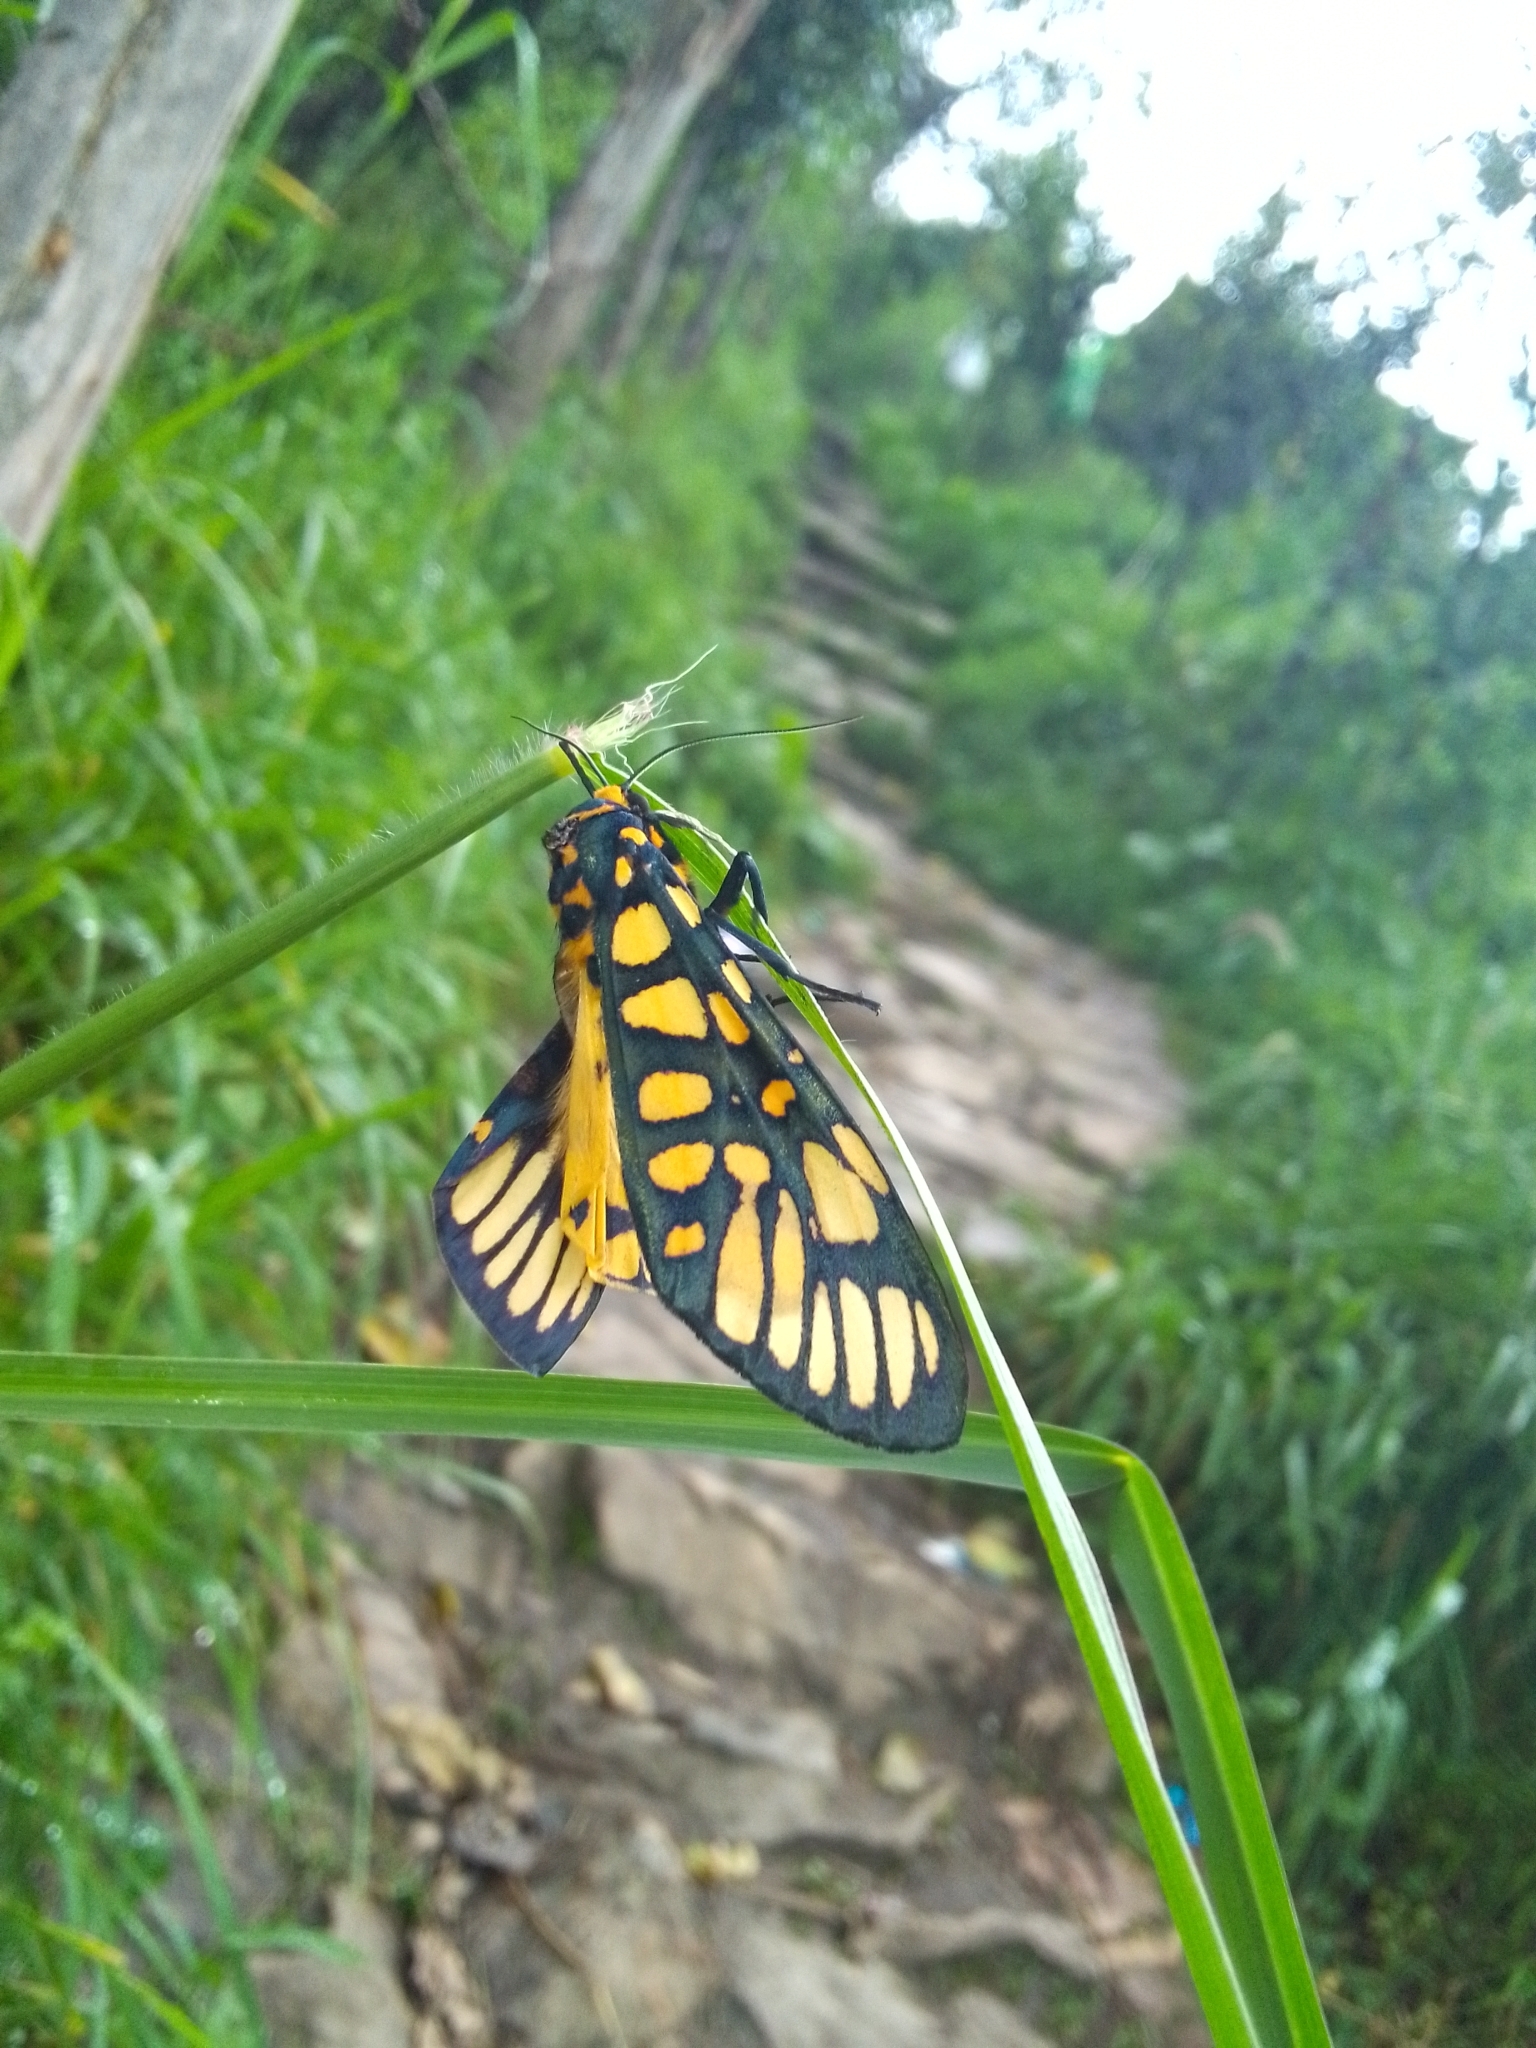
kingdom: Animalia
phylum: Arthropoda
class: Insecta
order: Lepidoptera
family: Erebidae
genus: Aglaomorpha
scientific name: Aglaomorpha plagiata
